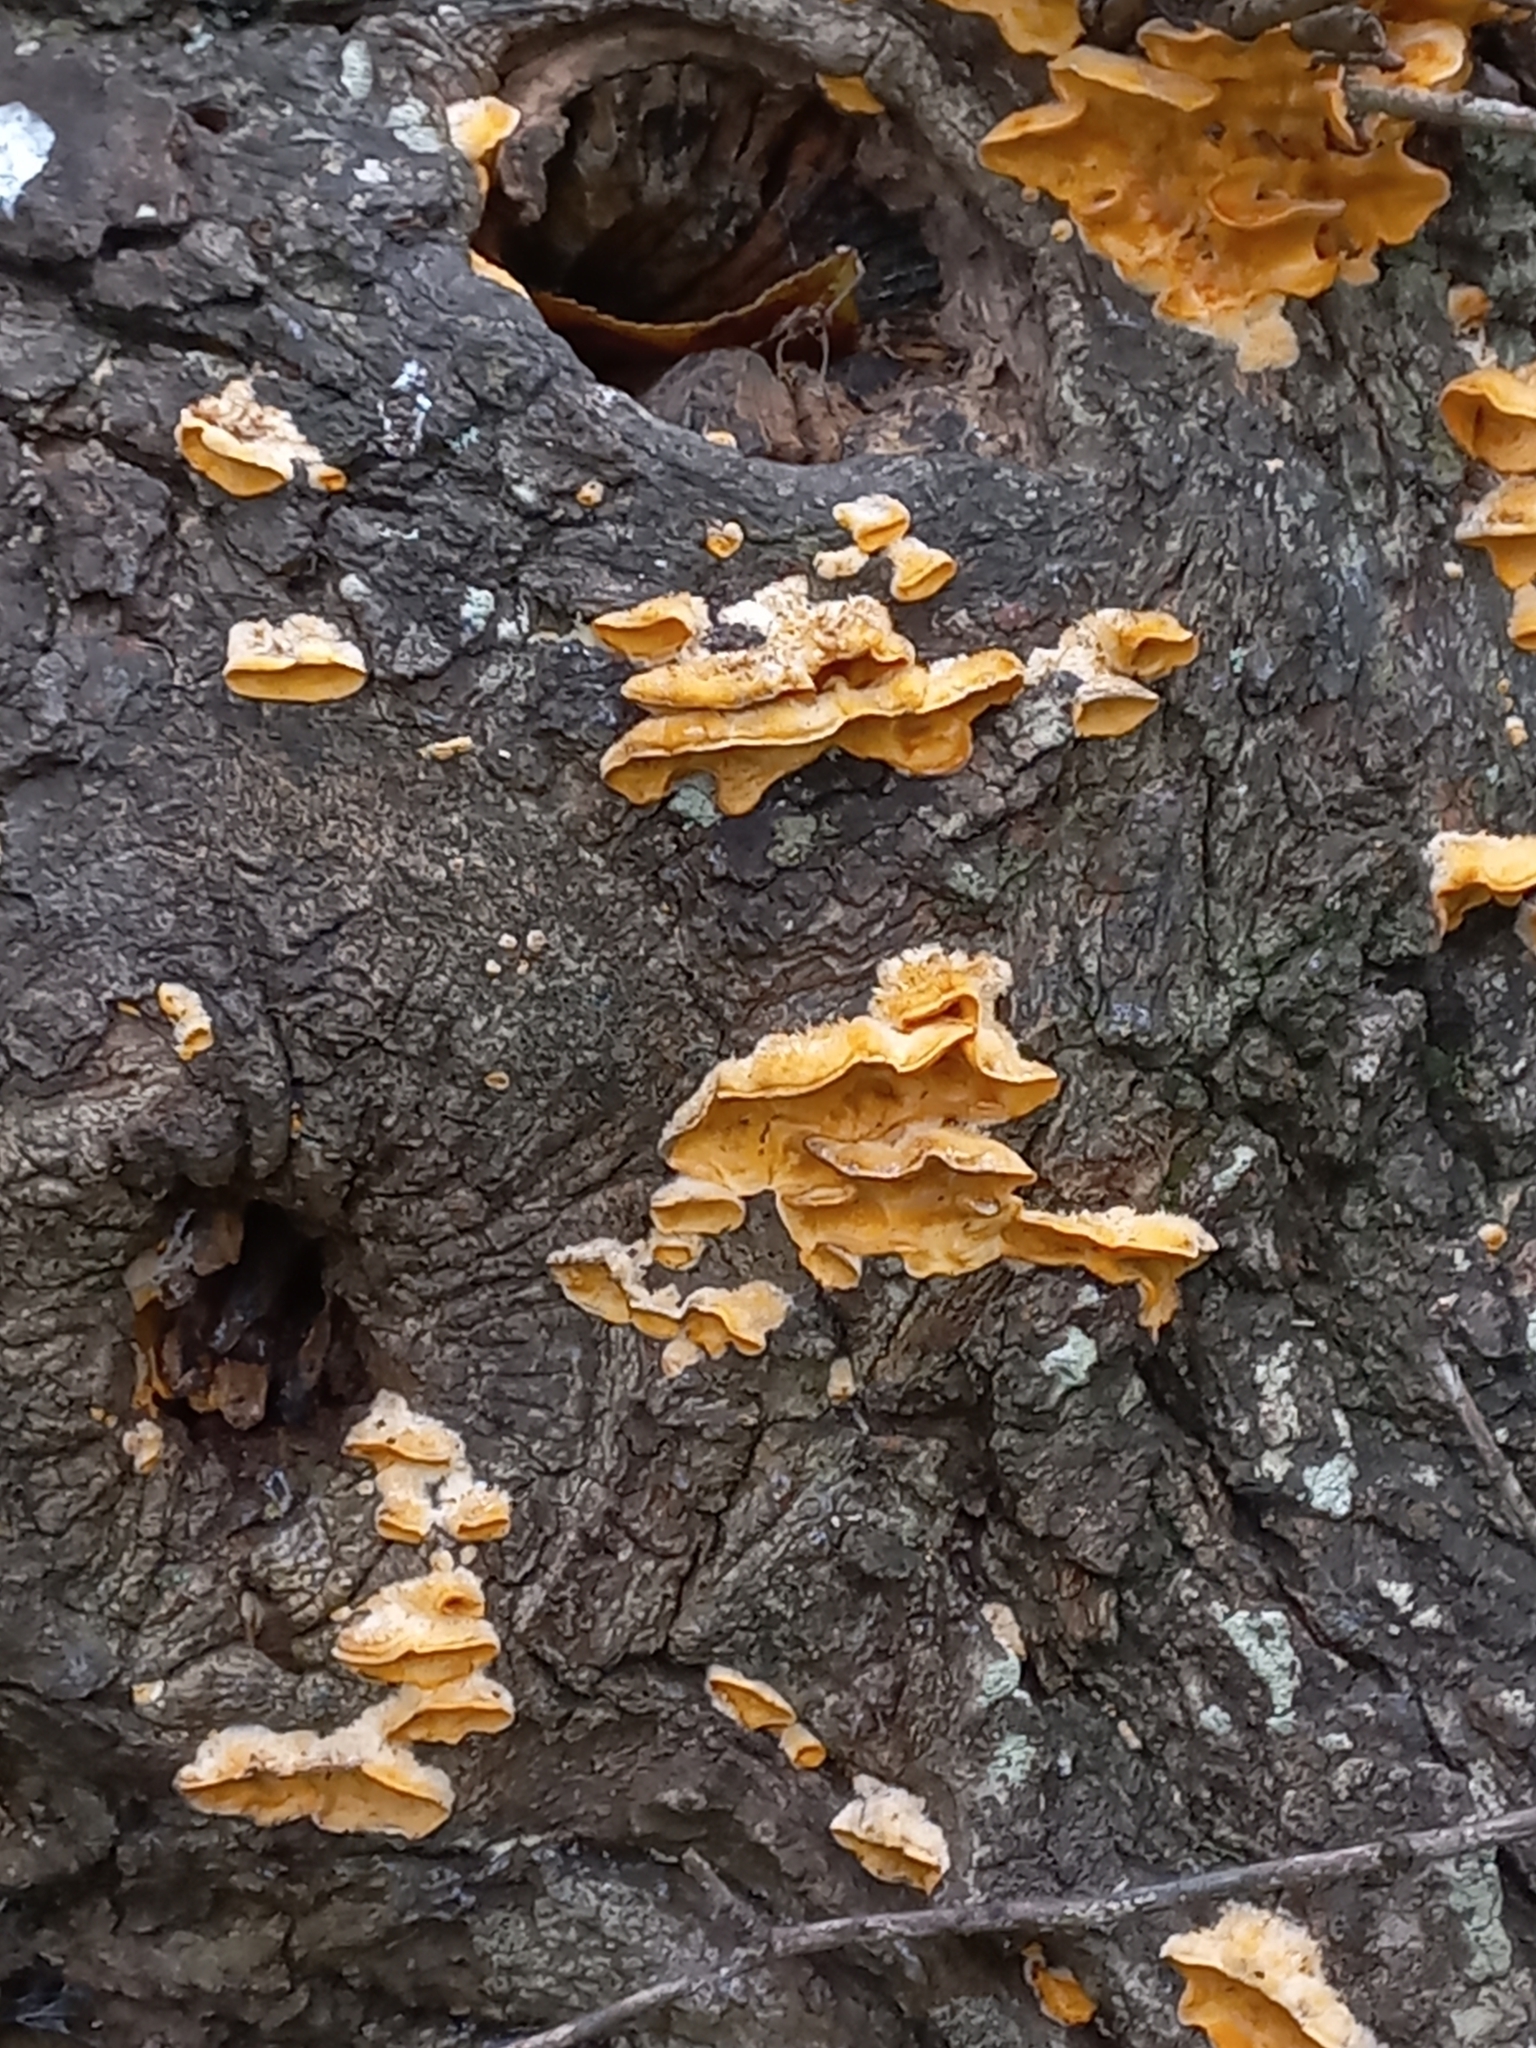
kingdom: Fungi
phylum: Basidiomycota
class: Agaricomycetes
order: Russulales
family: Stereaceae
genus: Stereum
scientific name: Stereum hirsutum
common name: Hairy curtain crust
